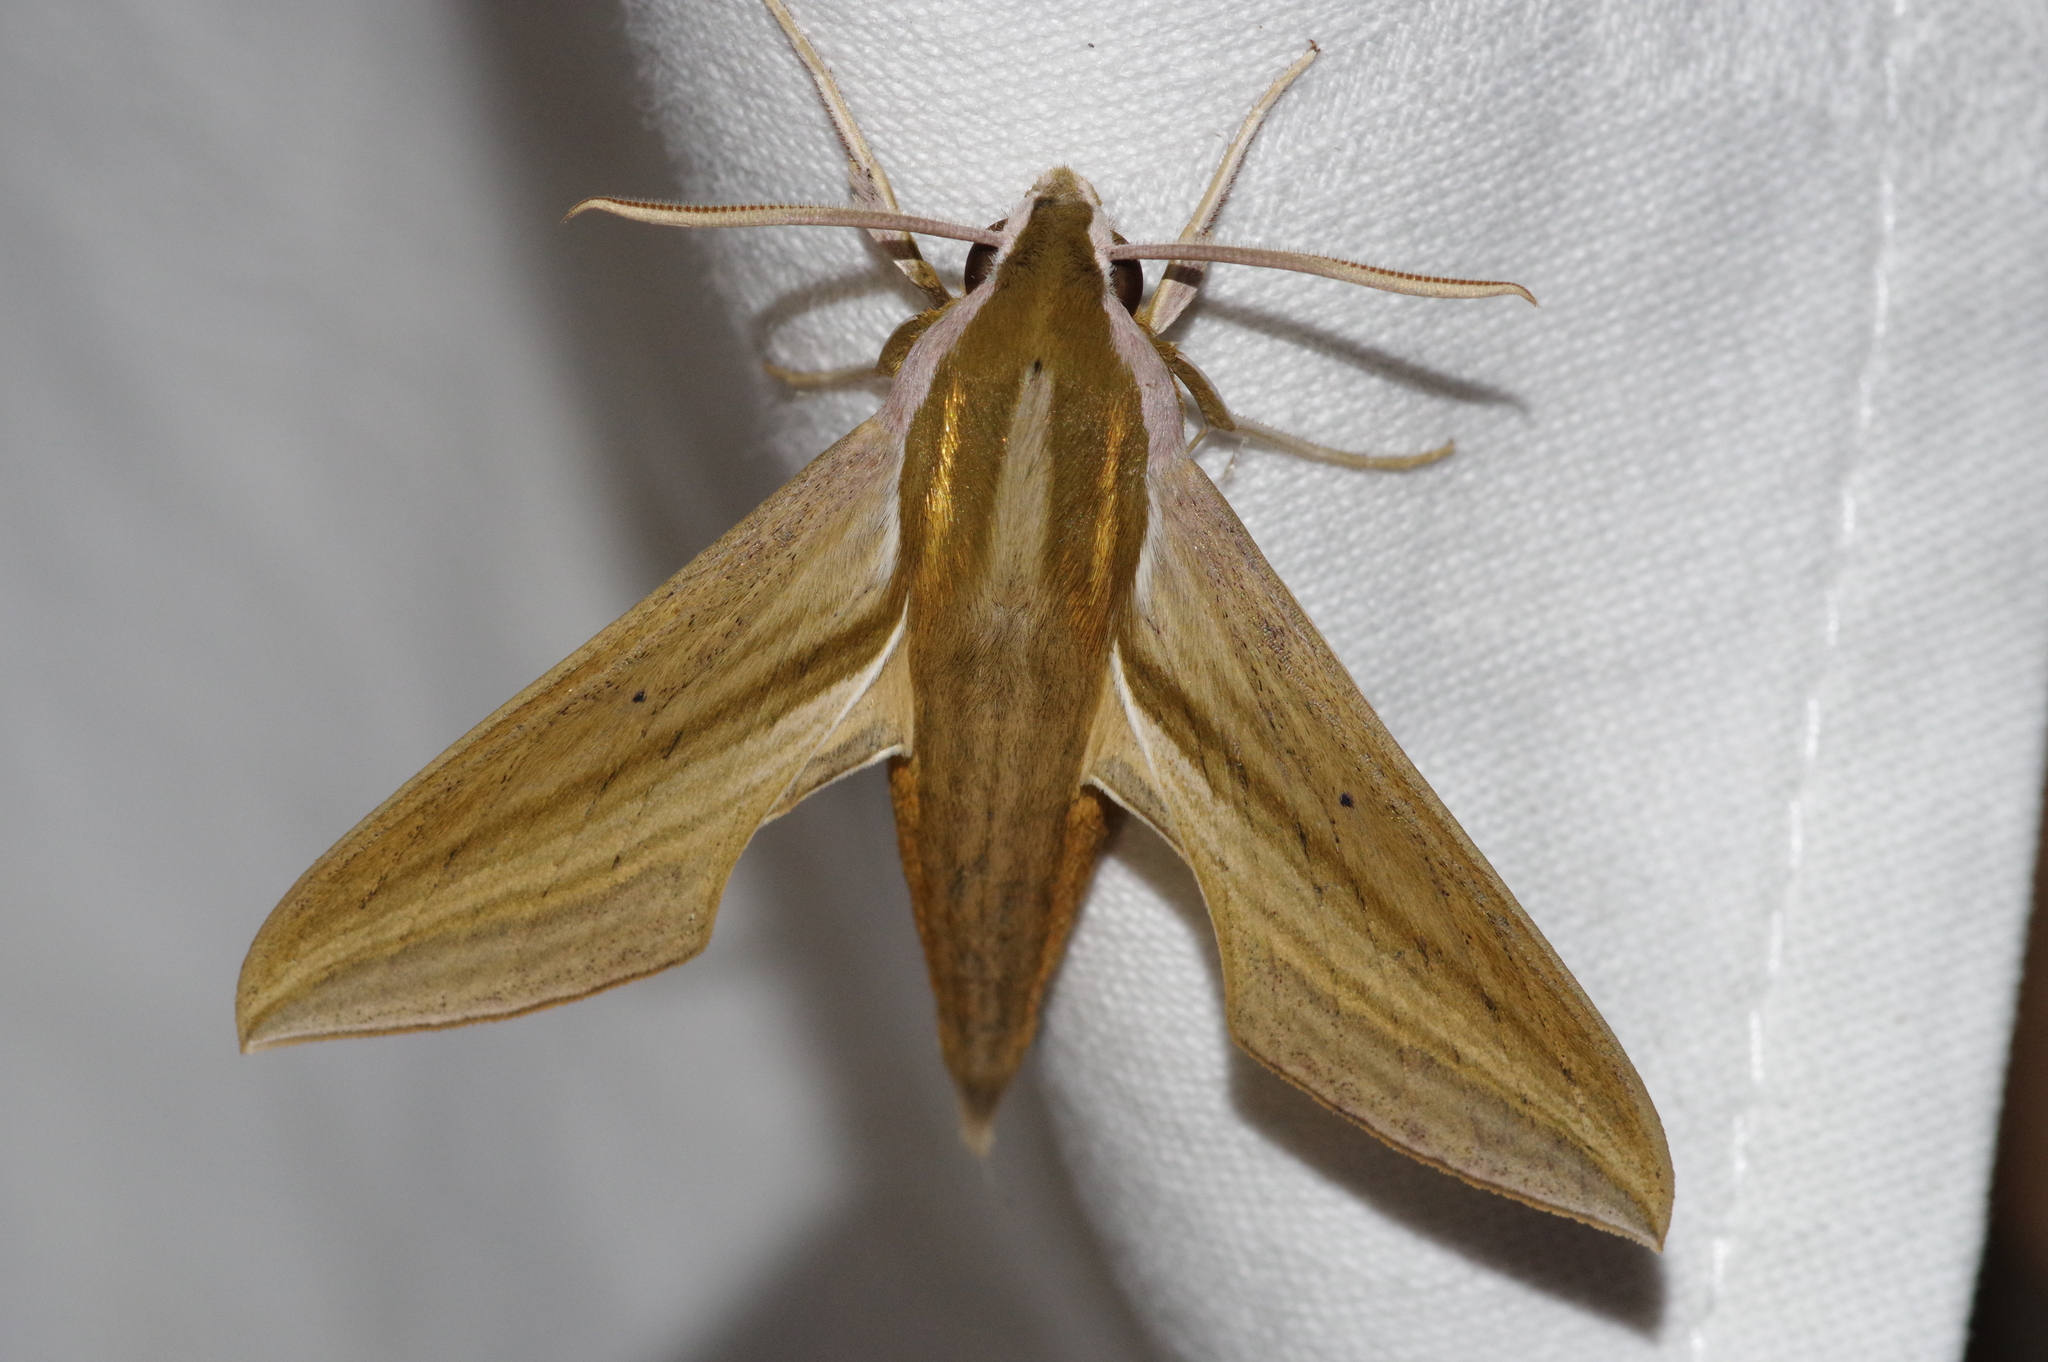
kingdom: Animalia
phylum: Arthropoda
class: Insecta
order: Lepidoptera
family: Sphingidae
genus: Theretra
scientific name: Theretra japonica
